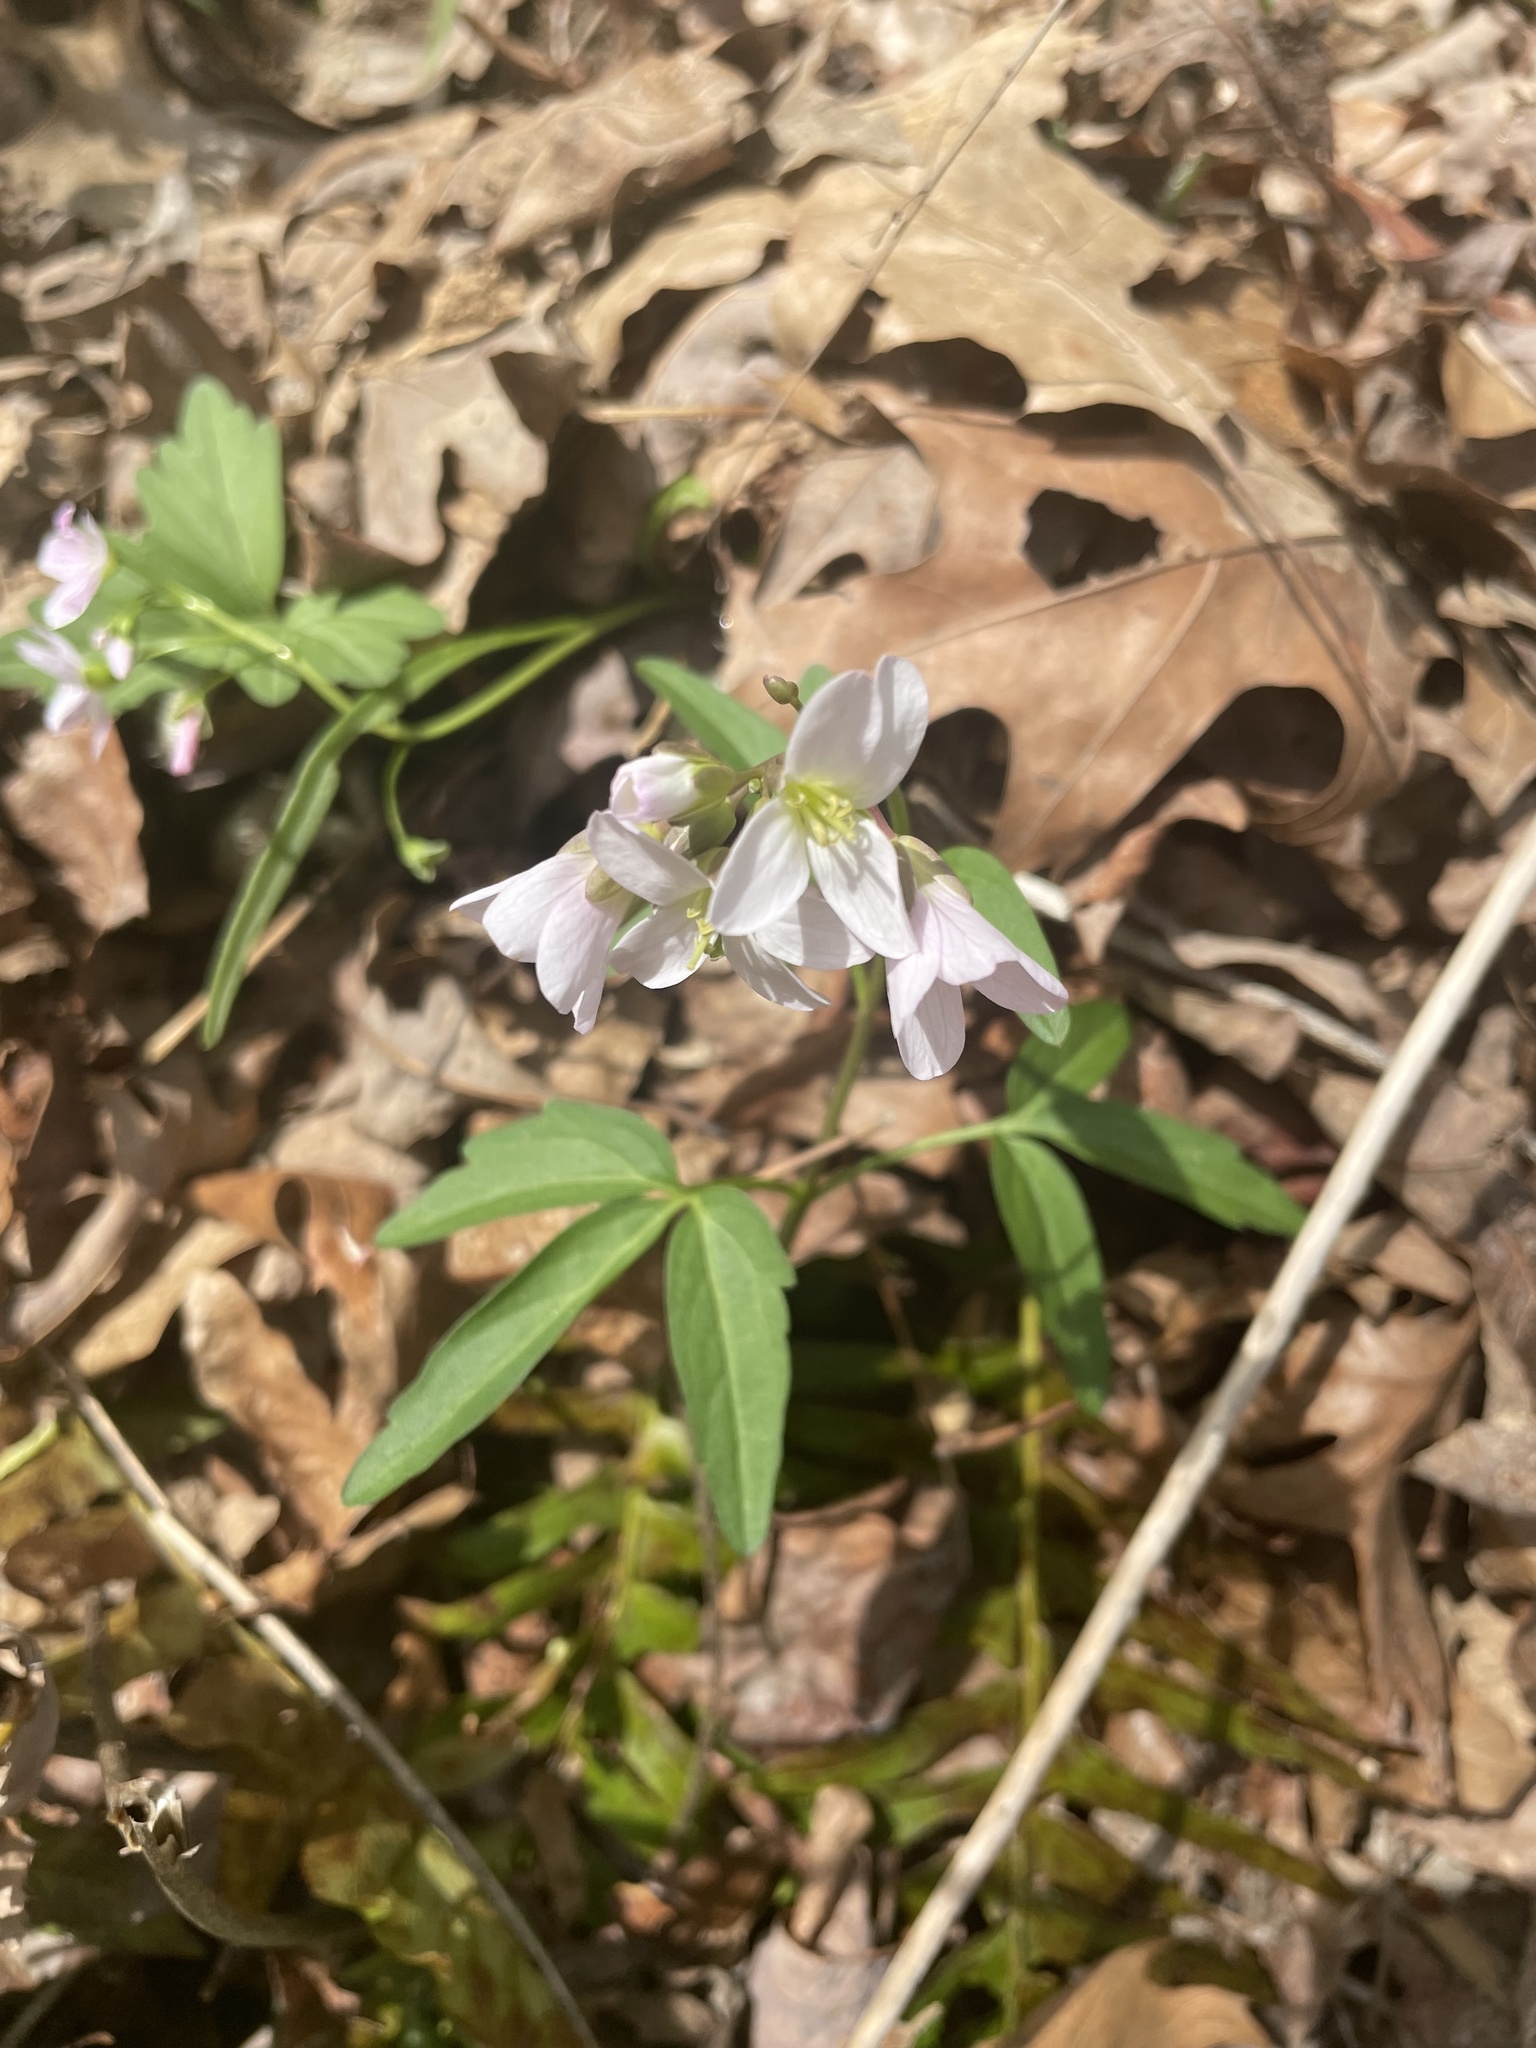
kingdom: Plantae
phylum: Tracheophyta
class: Magnoliopsida
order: Brassicales
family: Brassicaceae
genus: Cardamine
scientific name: Cardamine concatenata
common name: Cut-leaf toothcup
